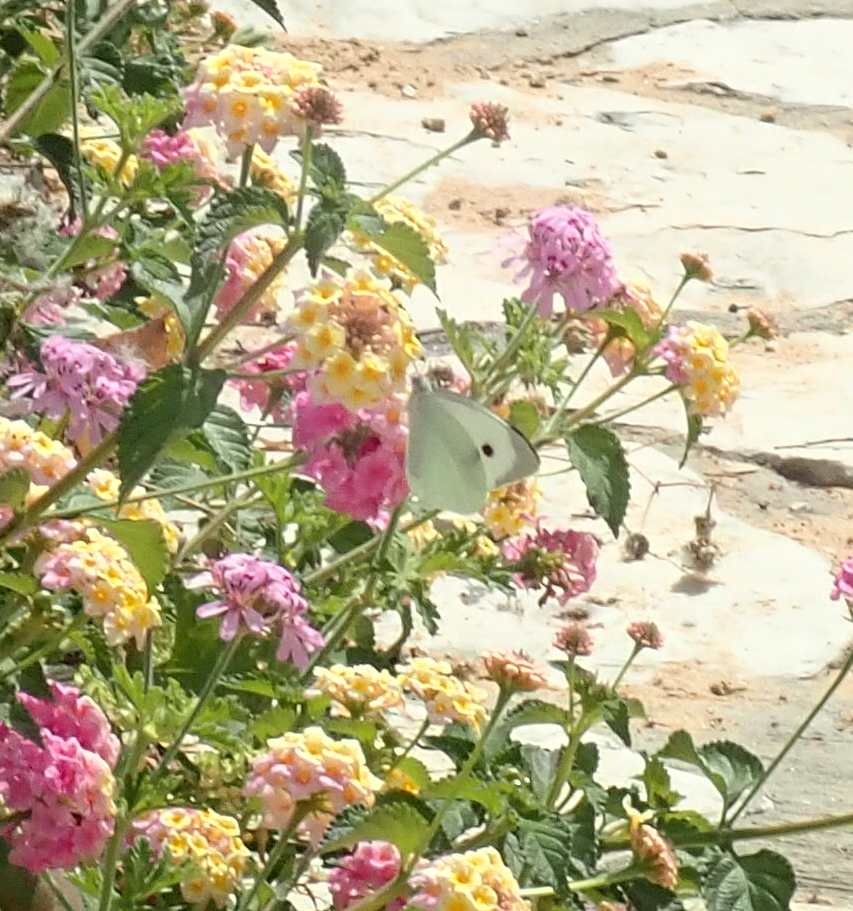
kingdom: Animalia
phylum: Arthropoda
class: Insecta
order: Lepidoptera
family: Pieridae
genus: Pieris
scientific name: Pieris brassicae
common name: Large white
